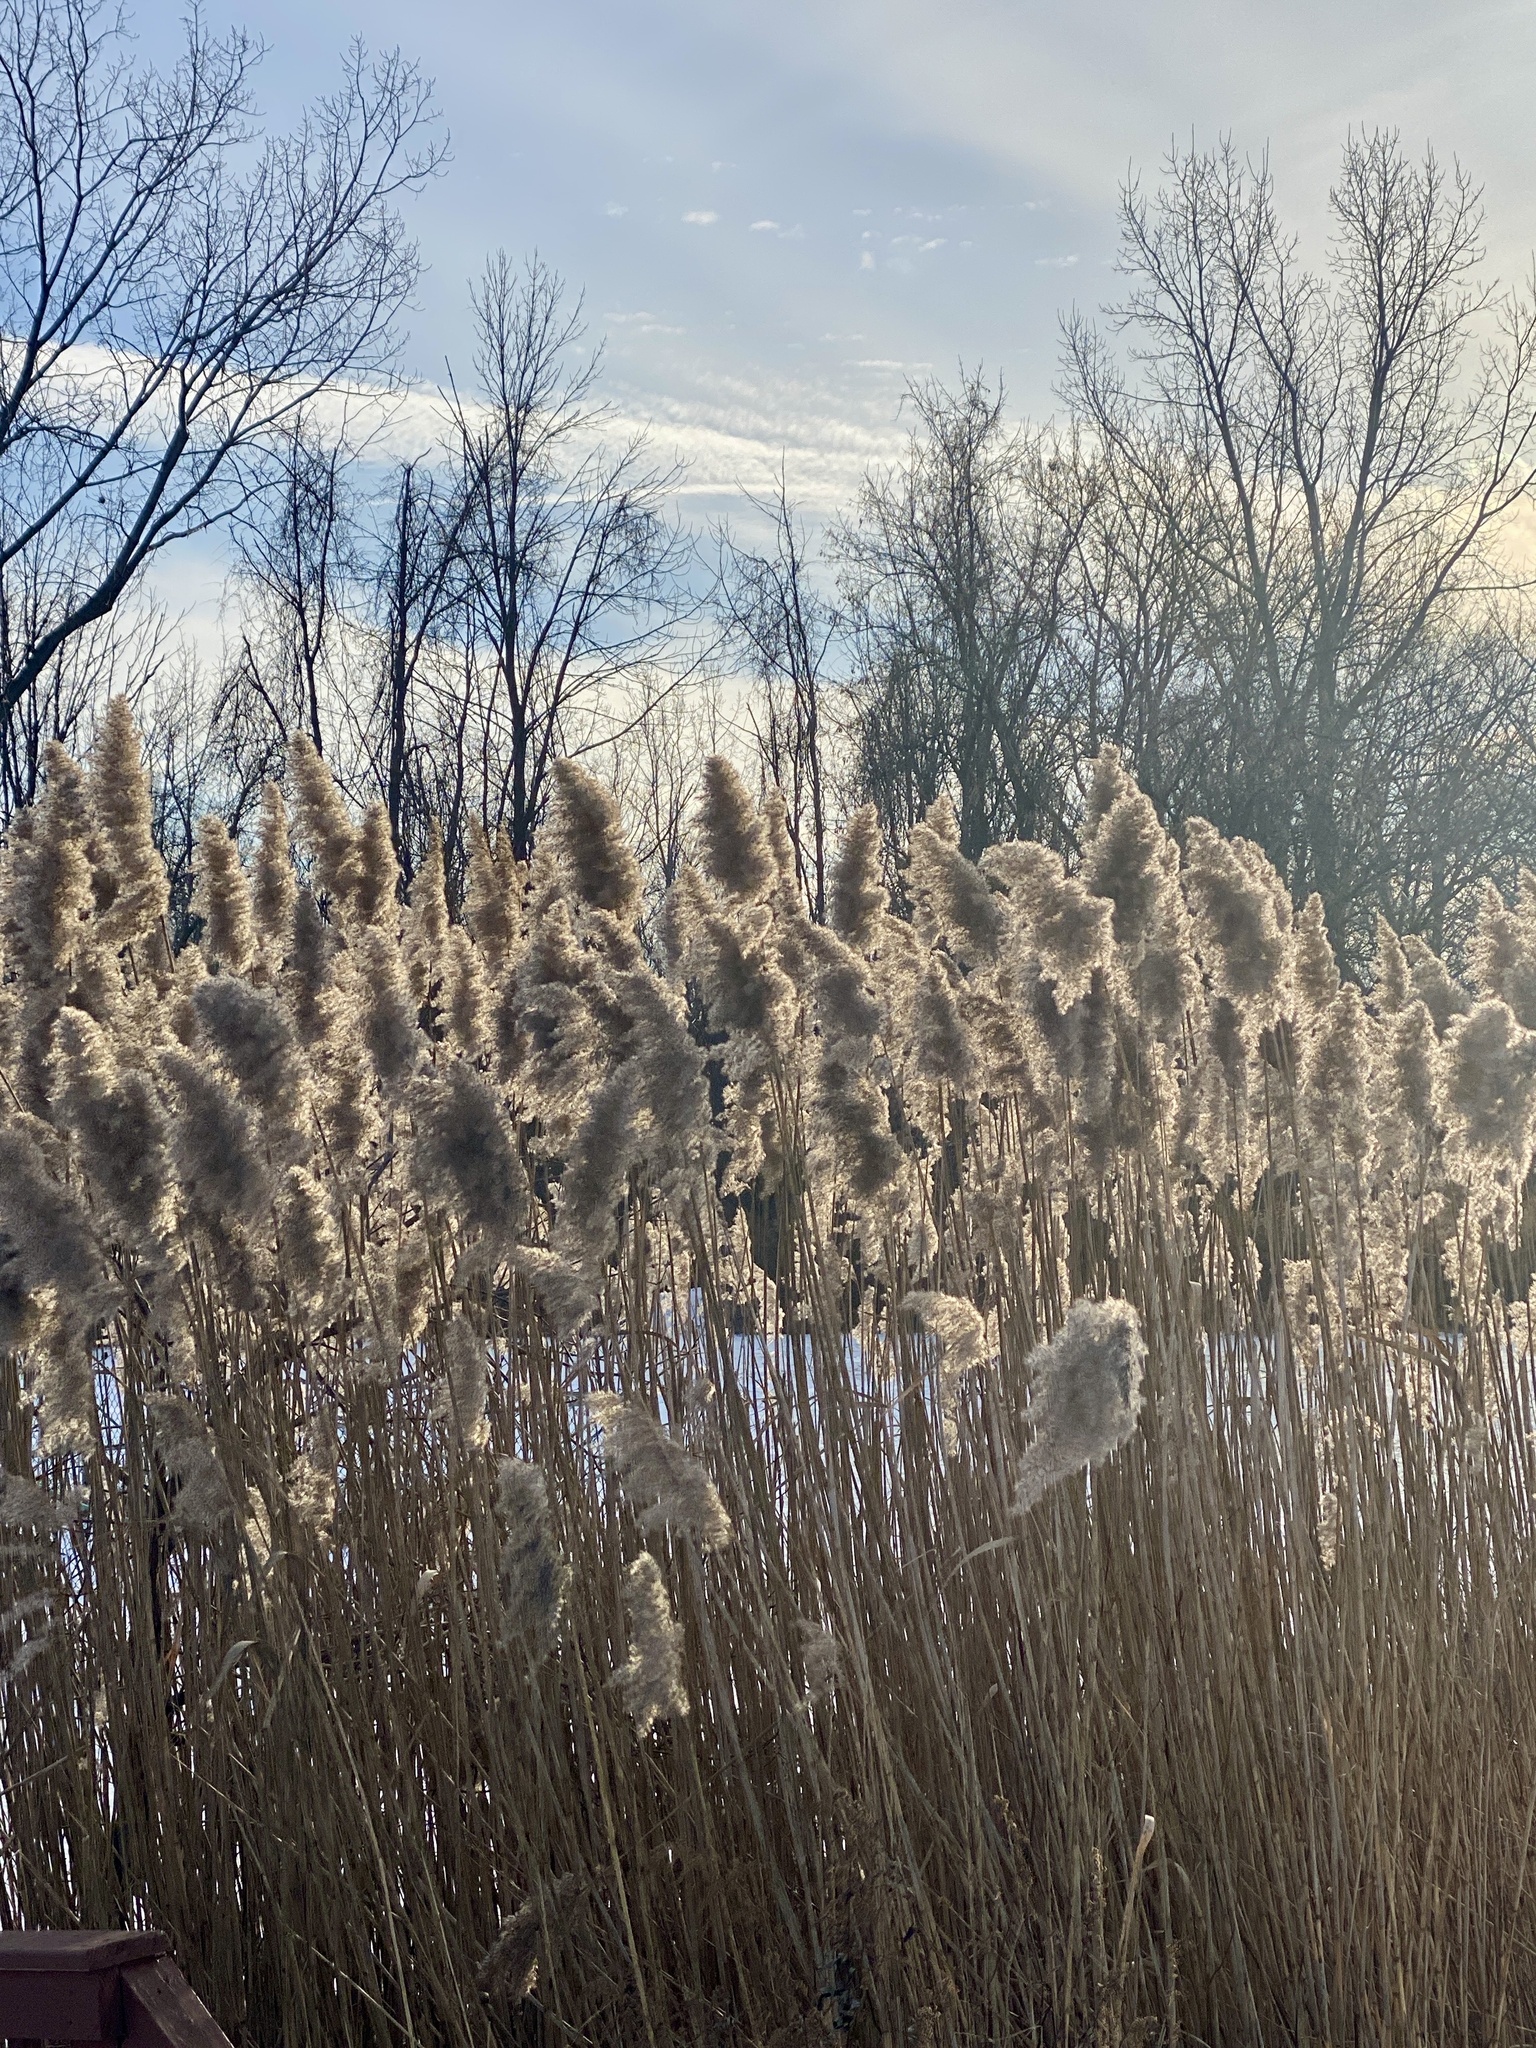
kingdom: Plantae
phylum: Tracheophyta
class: Liliopsida
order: Poales
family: Poaceae
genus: Phragmites
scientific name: Phragmites australis
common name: Common reed
